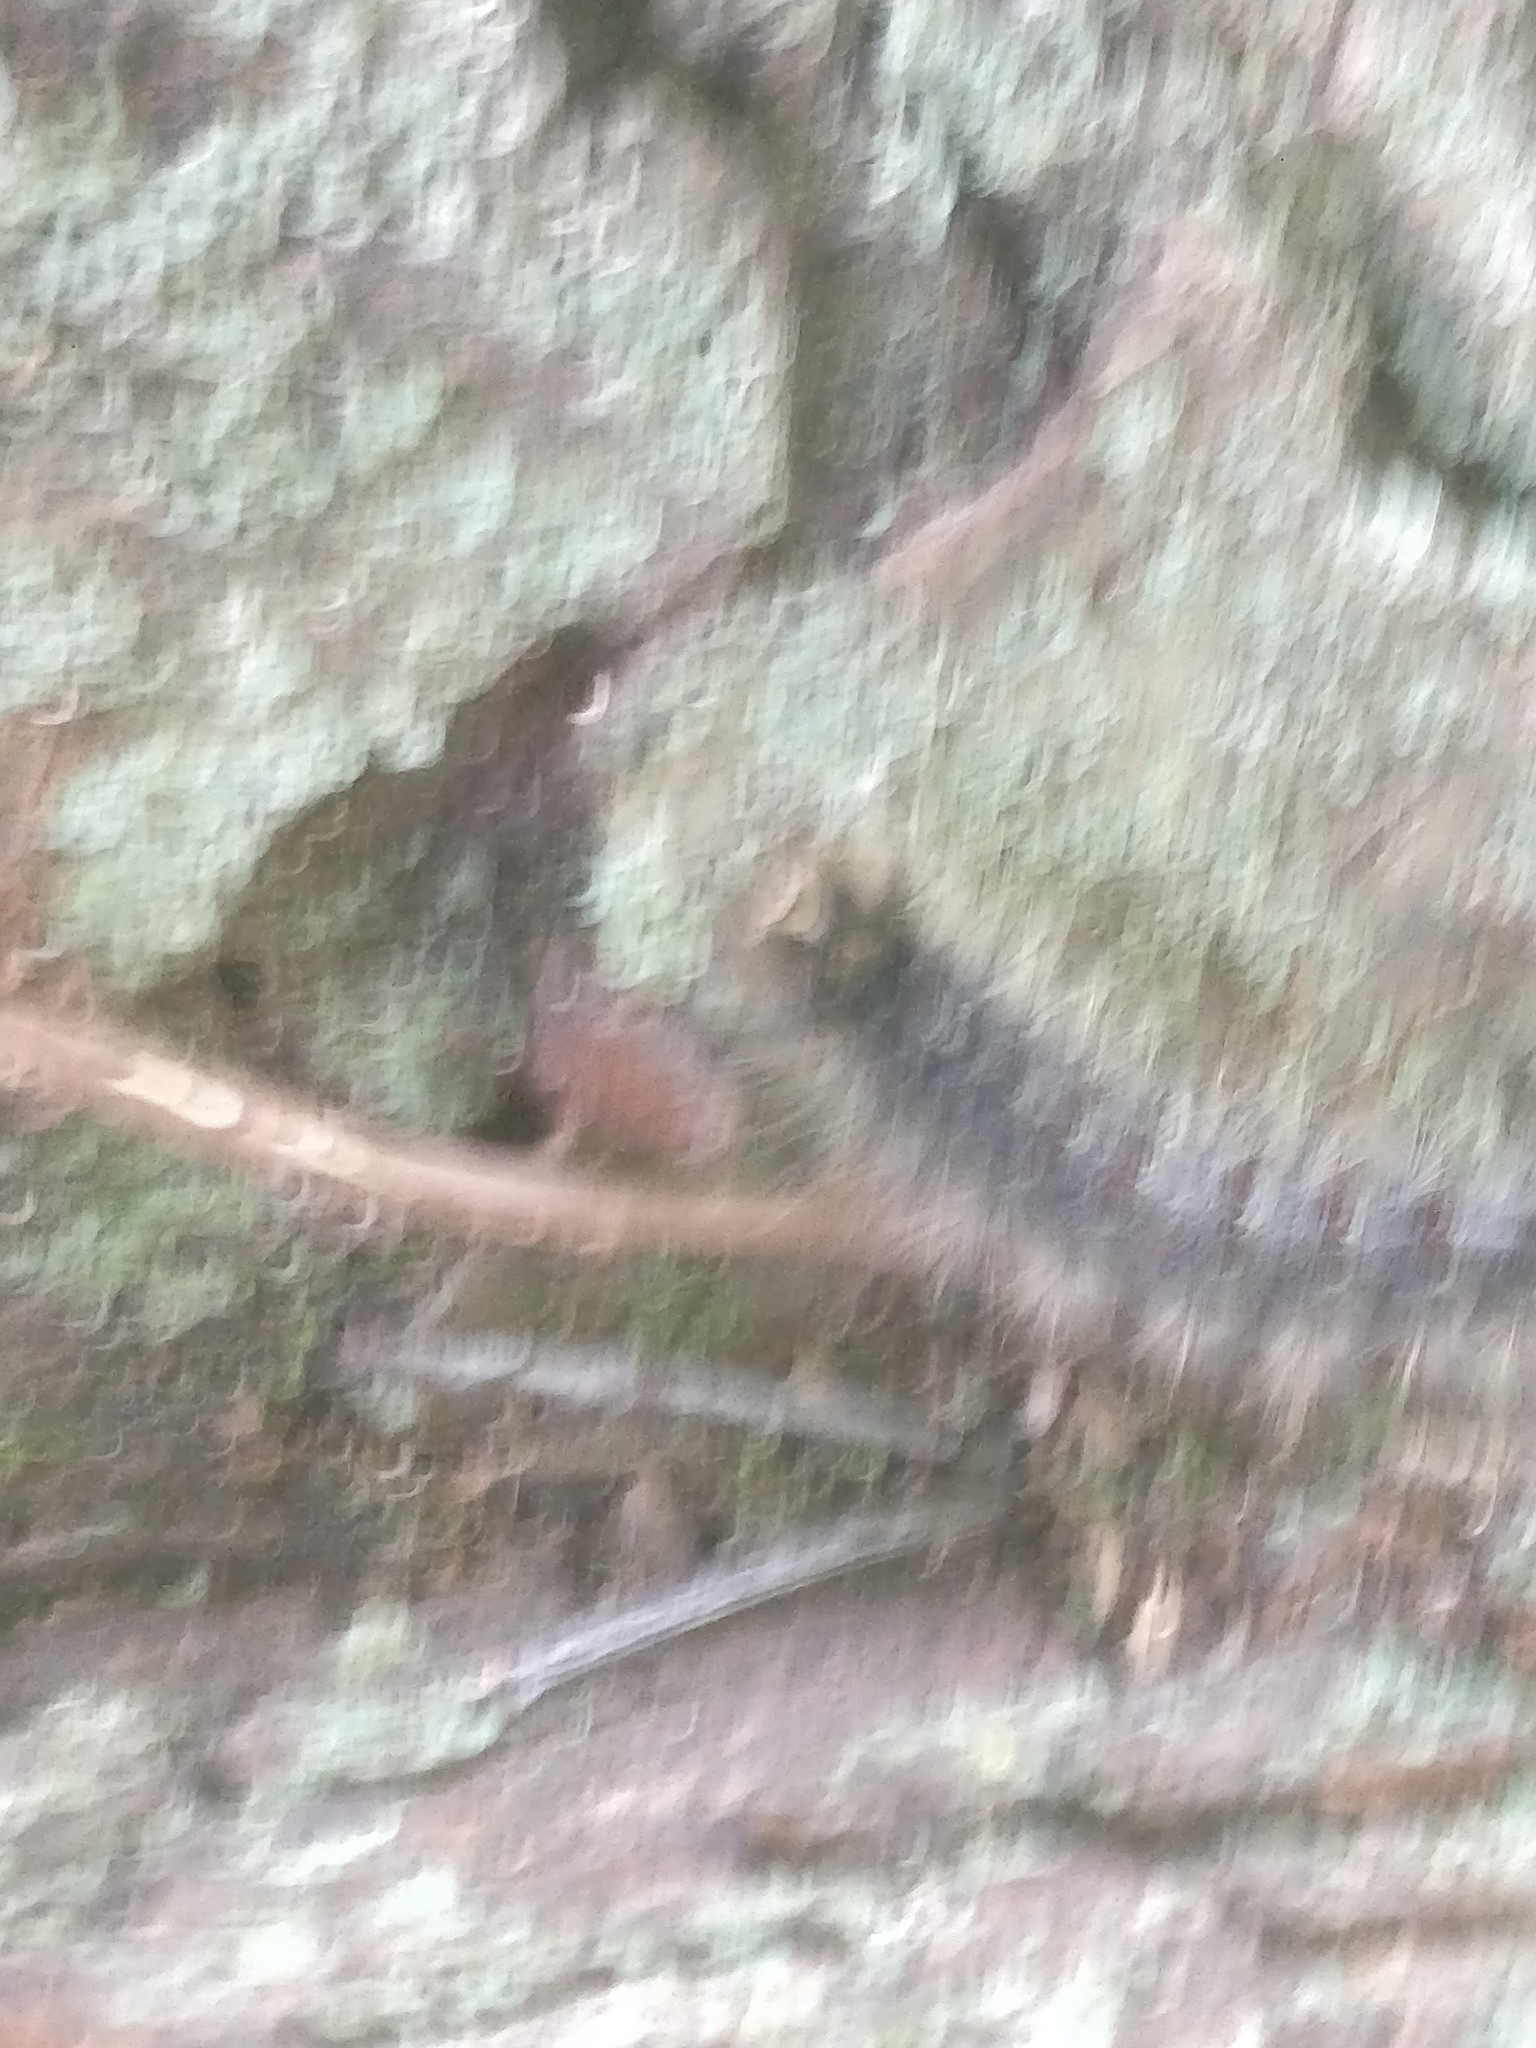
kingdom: Animalia
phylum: Arthropoda
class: Insecta
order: Lepidoptera
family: Erebidae
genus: Lymantria
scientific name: Lymantria dispar
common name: Gypsy moth
